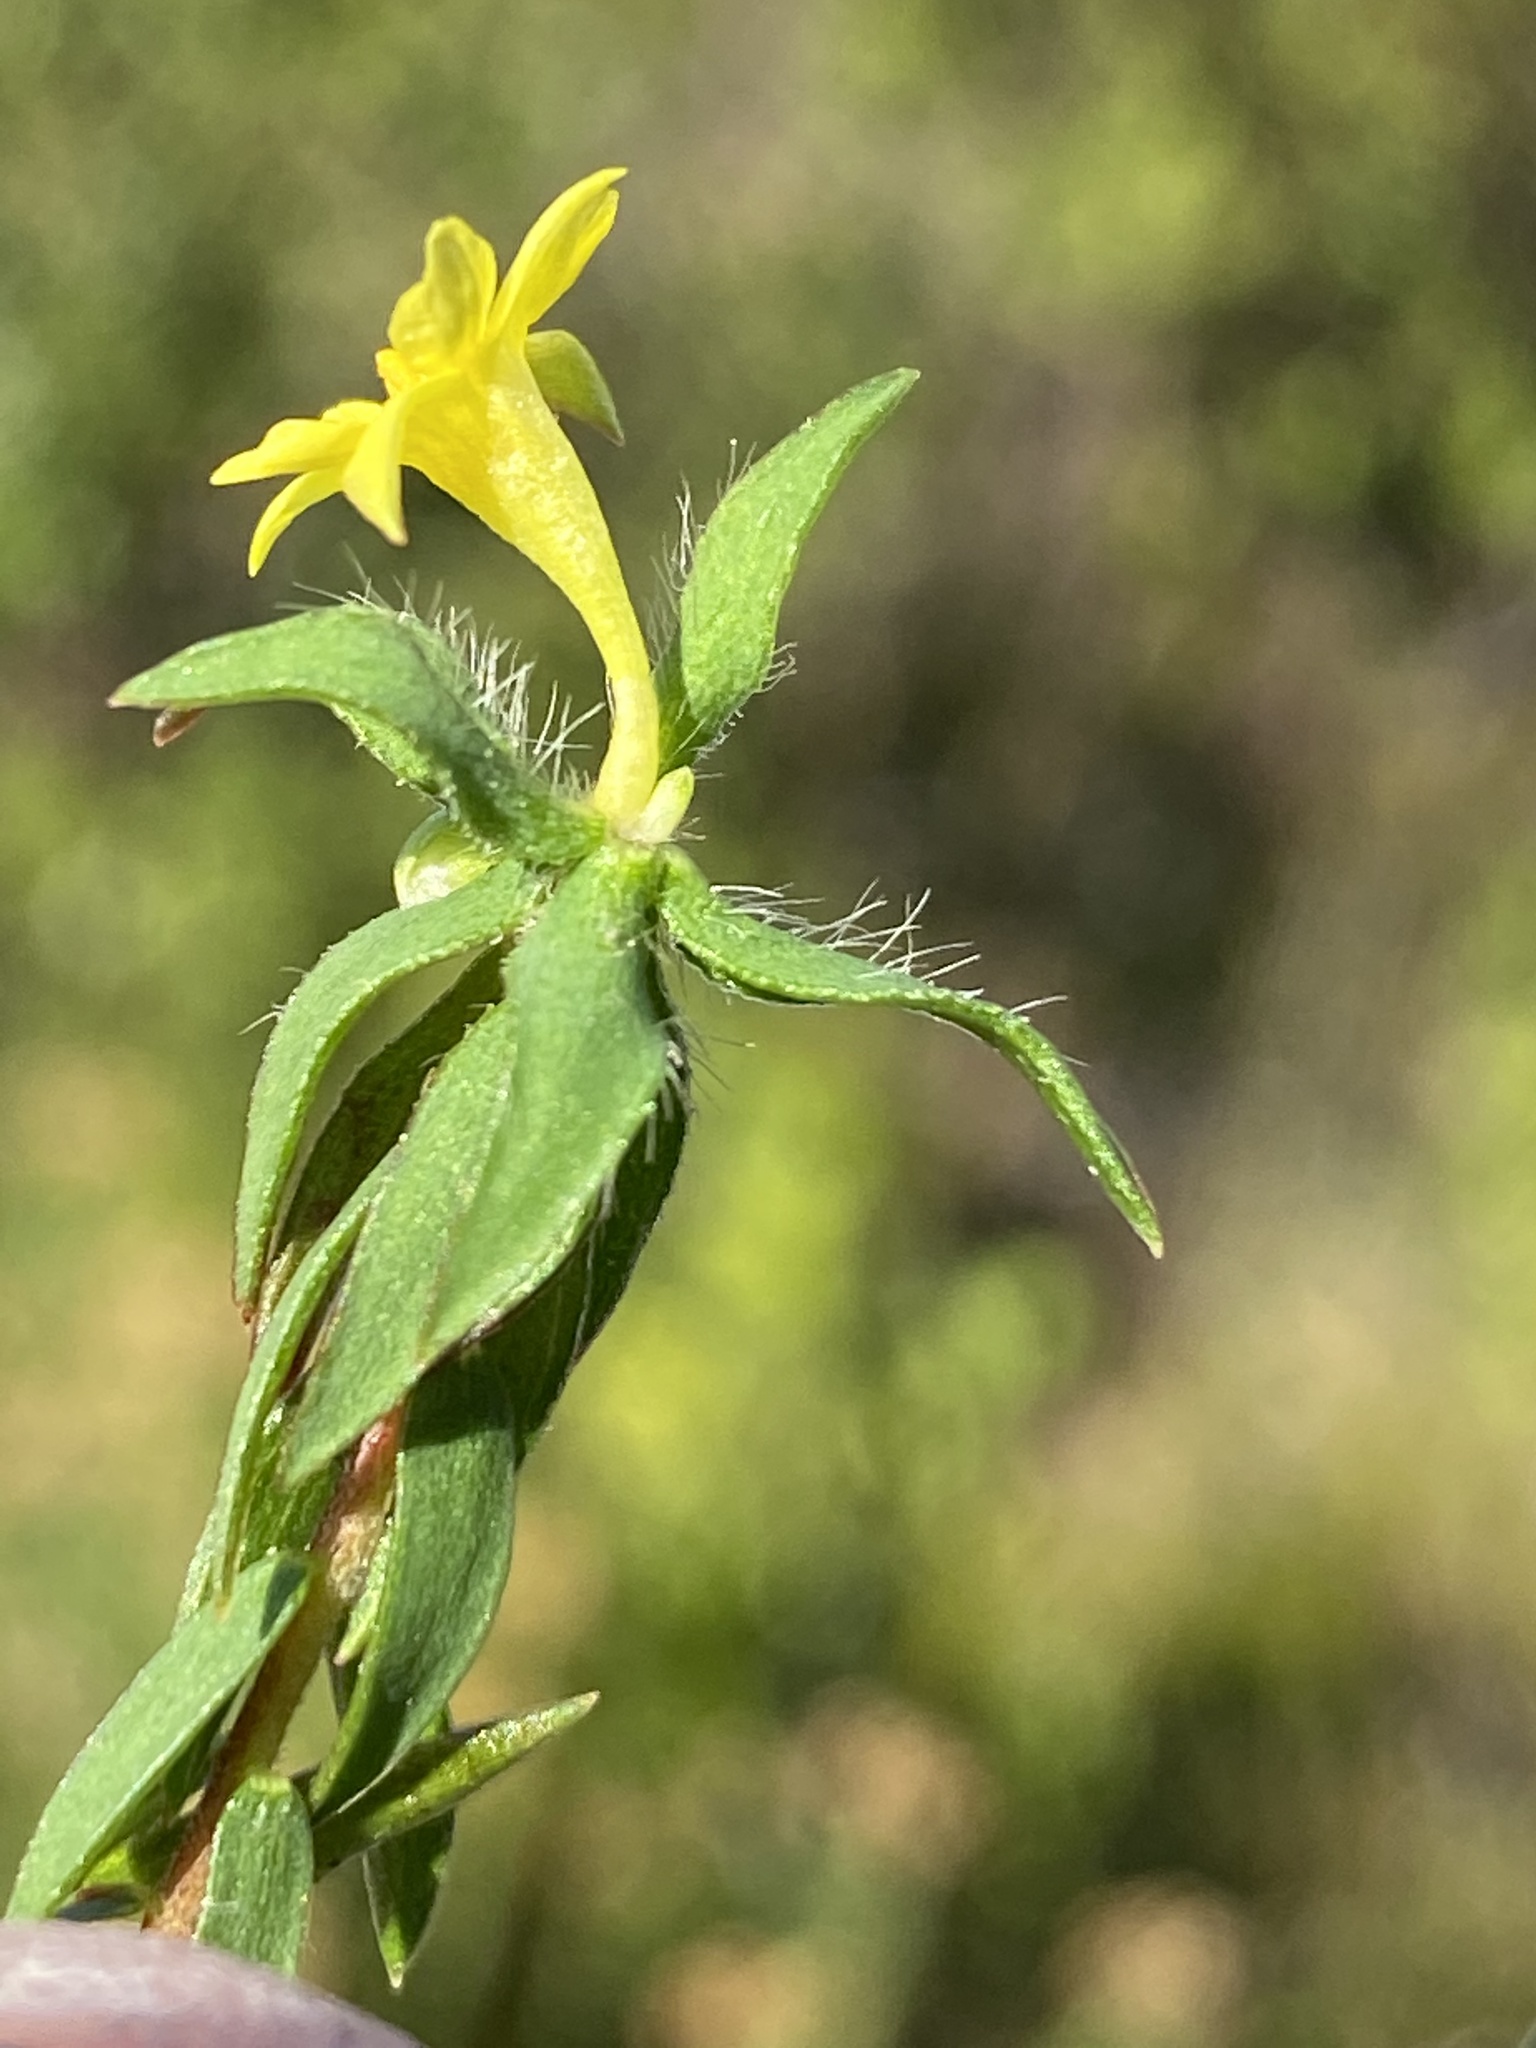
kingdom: Plantae
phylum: Tracheophyta
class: Magnoliopsida
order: Malvales
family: Thymelaeaceae
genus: Gnidia
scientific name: Gnidia simplex
